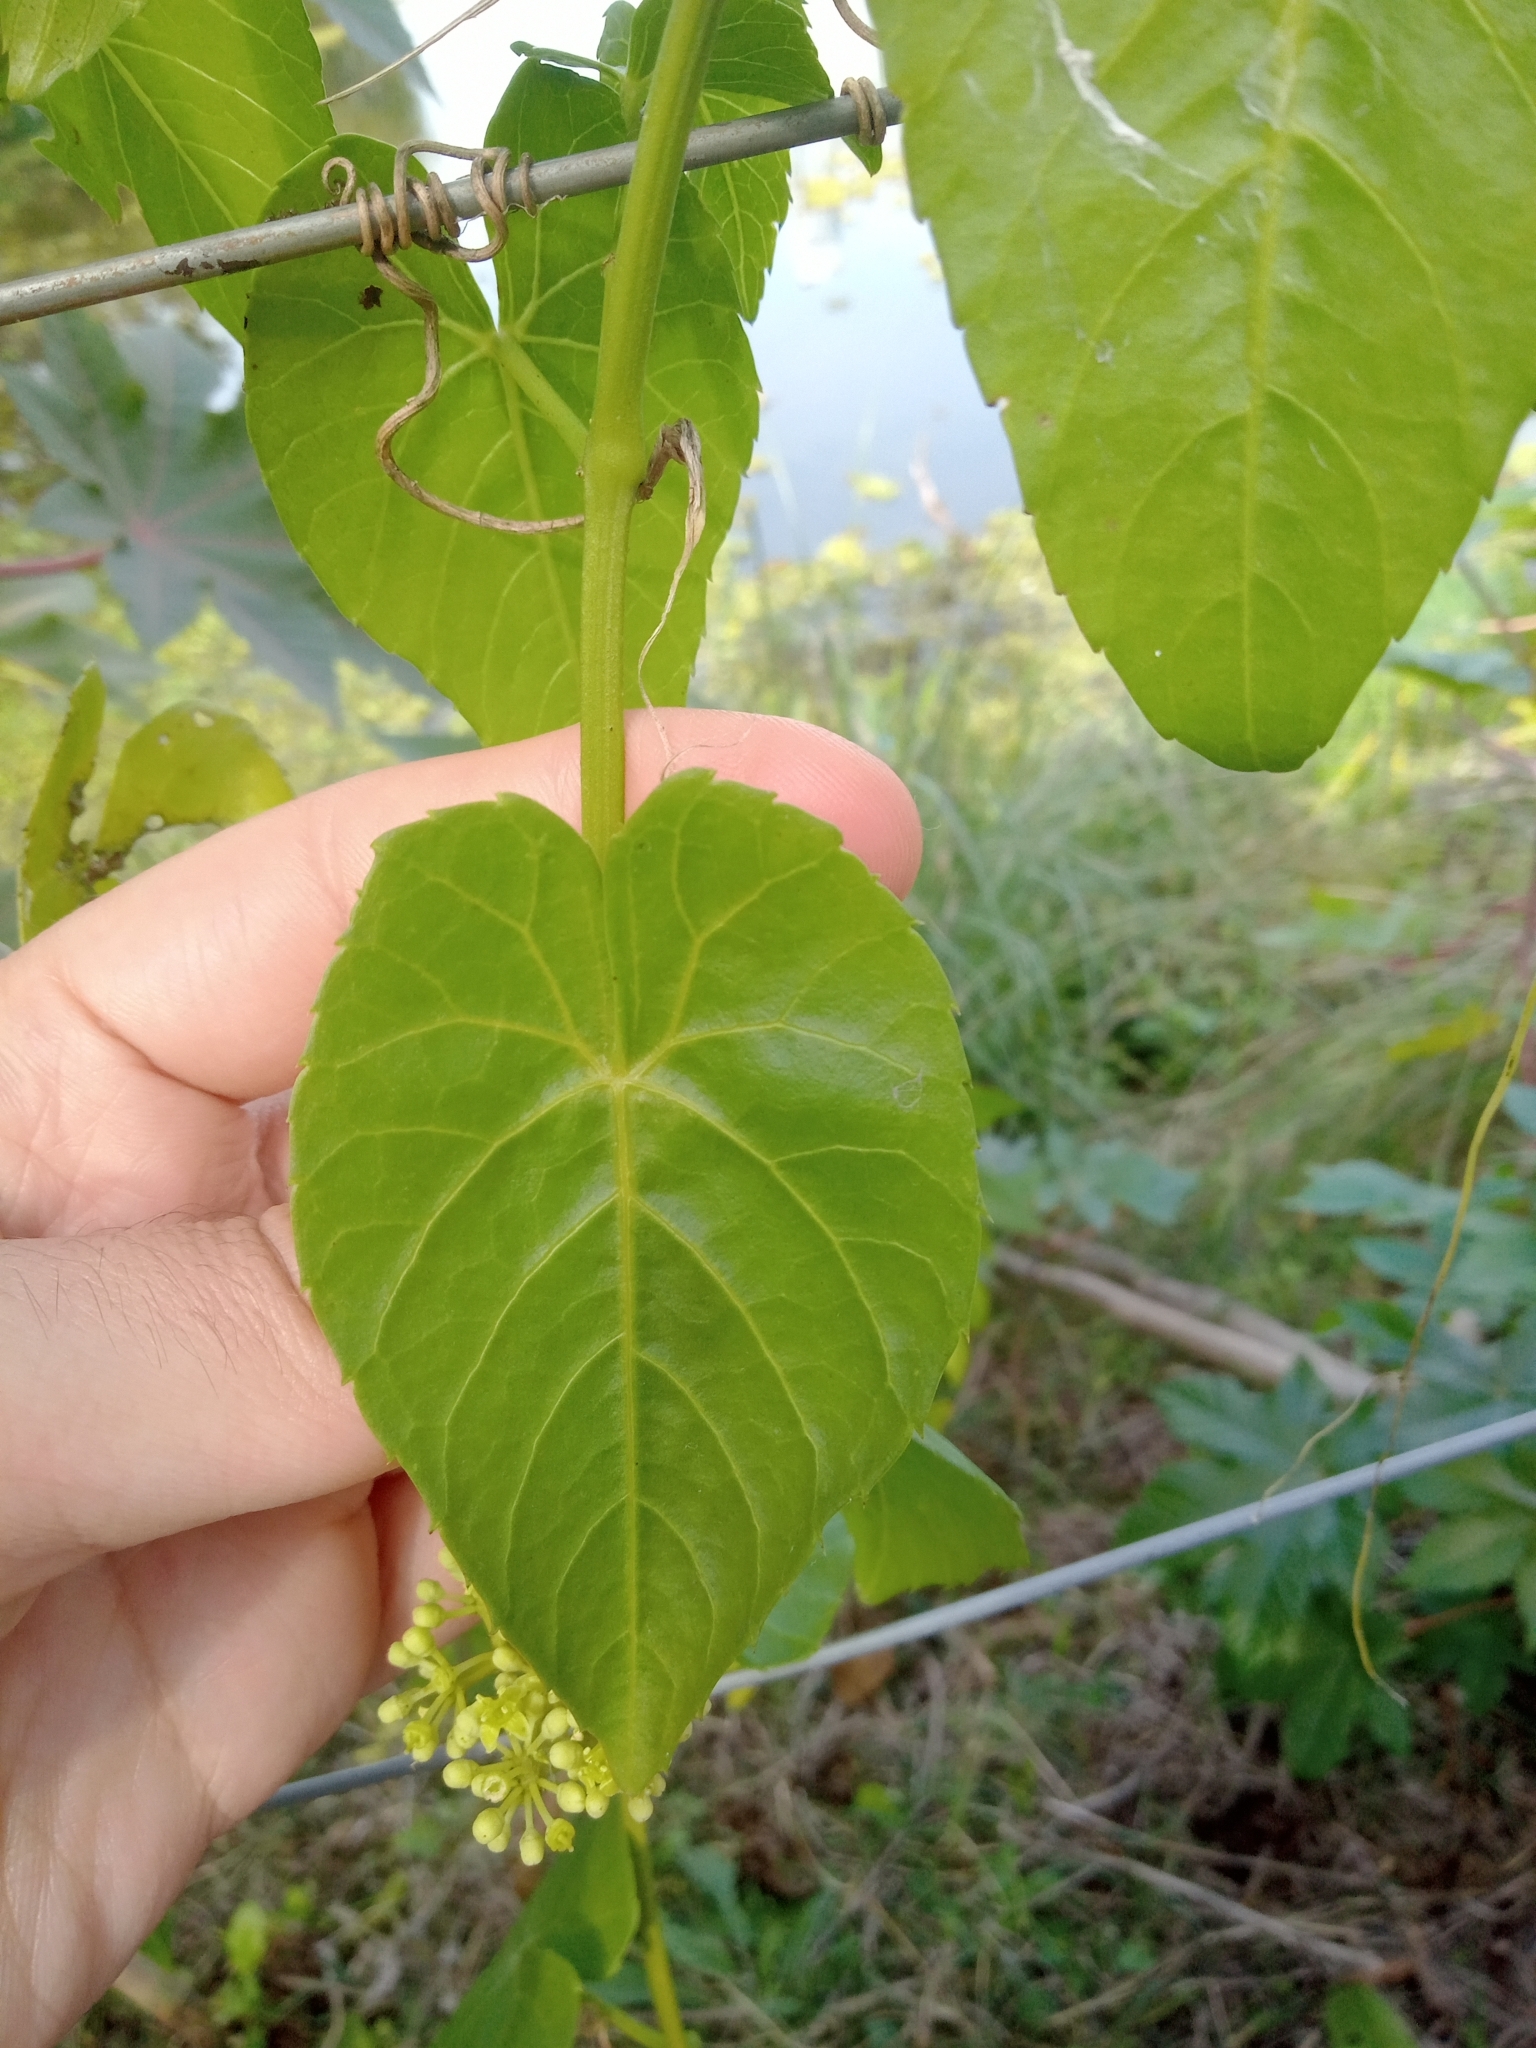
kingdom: Plantae
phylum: Tracheophyta
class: Magnoliopsida
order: Vitales
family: Vitaceae
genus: Cissus
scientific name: Cissus verticillata
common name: Princess vine
